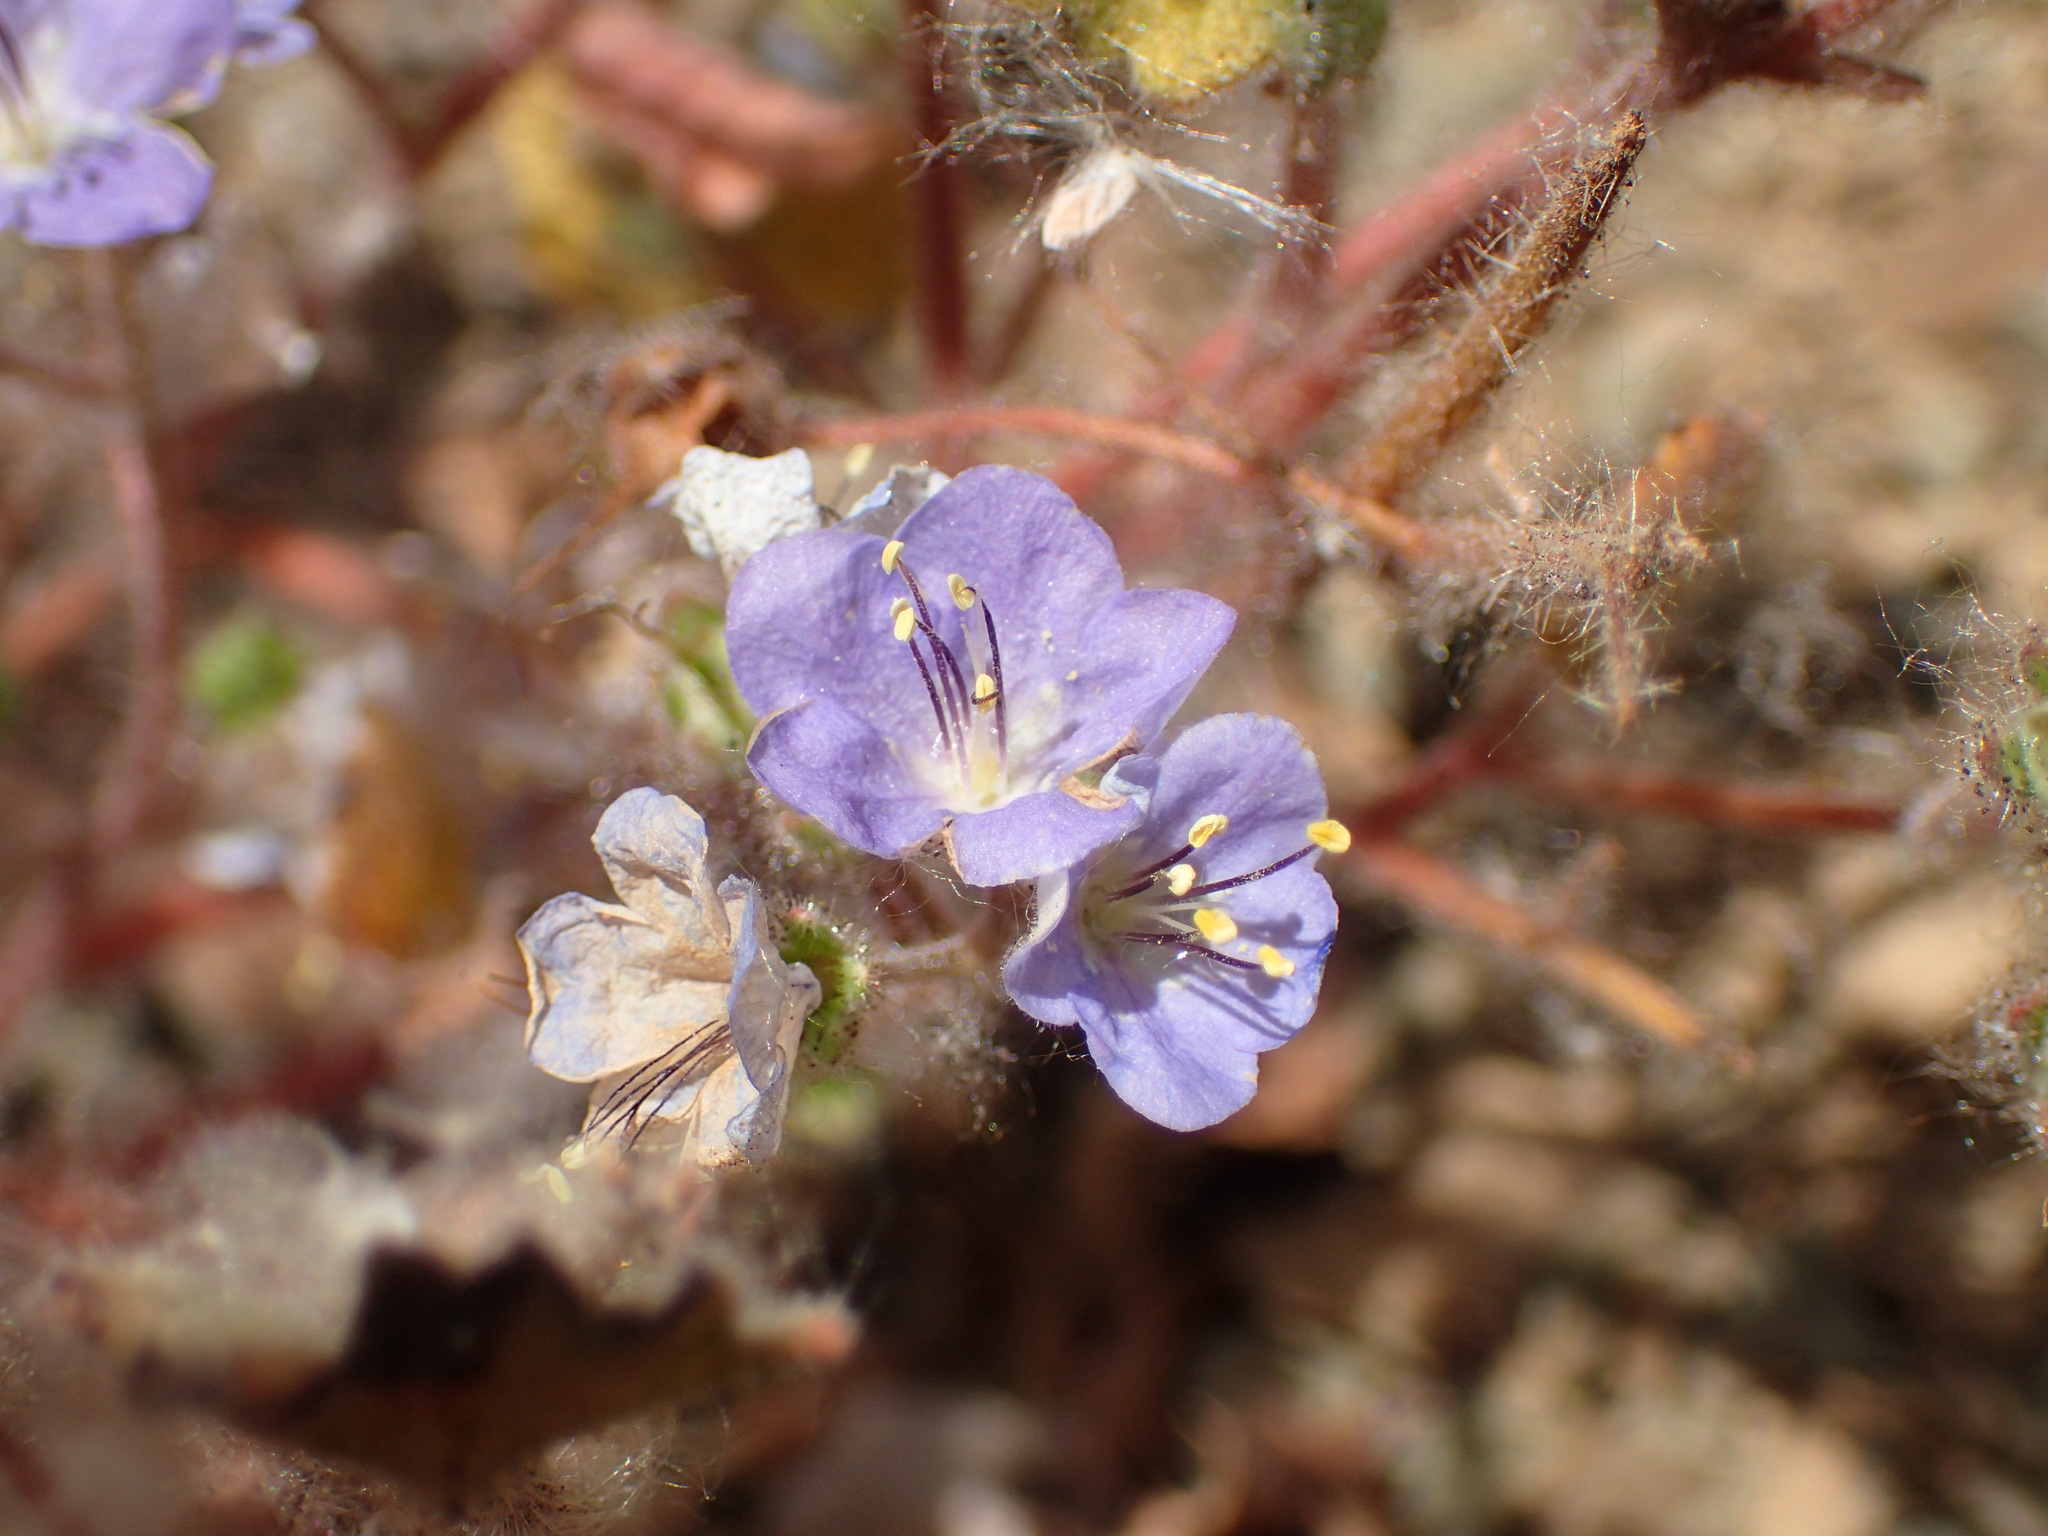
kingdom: Plantae
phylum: Tracheophyta
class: Magnoliopsida
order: Boraginales
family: Hydrophyllaceae
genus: Phacelia
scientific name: Phacelia longipes
